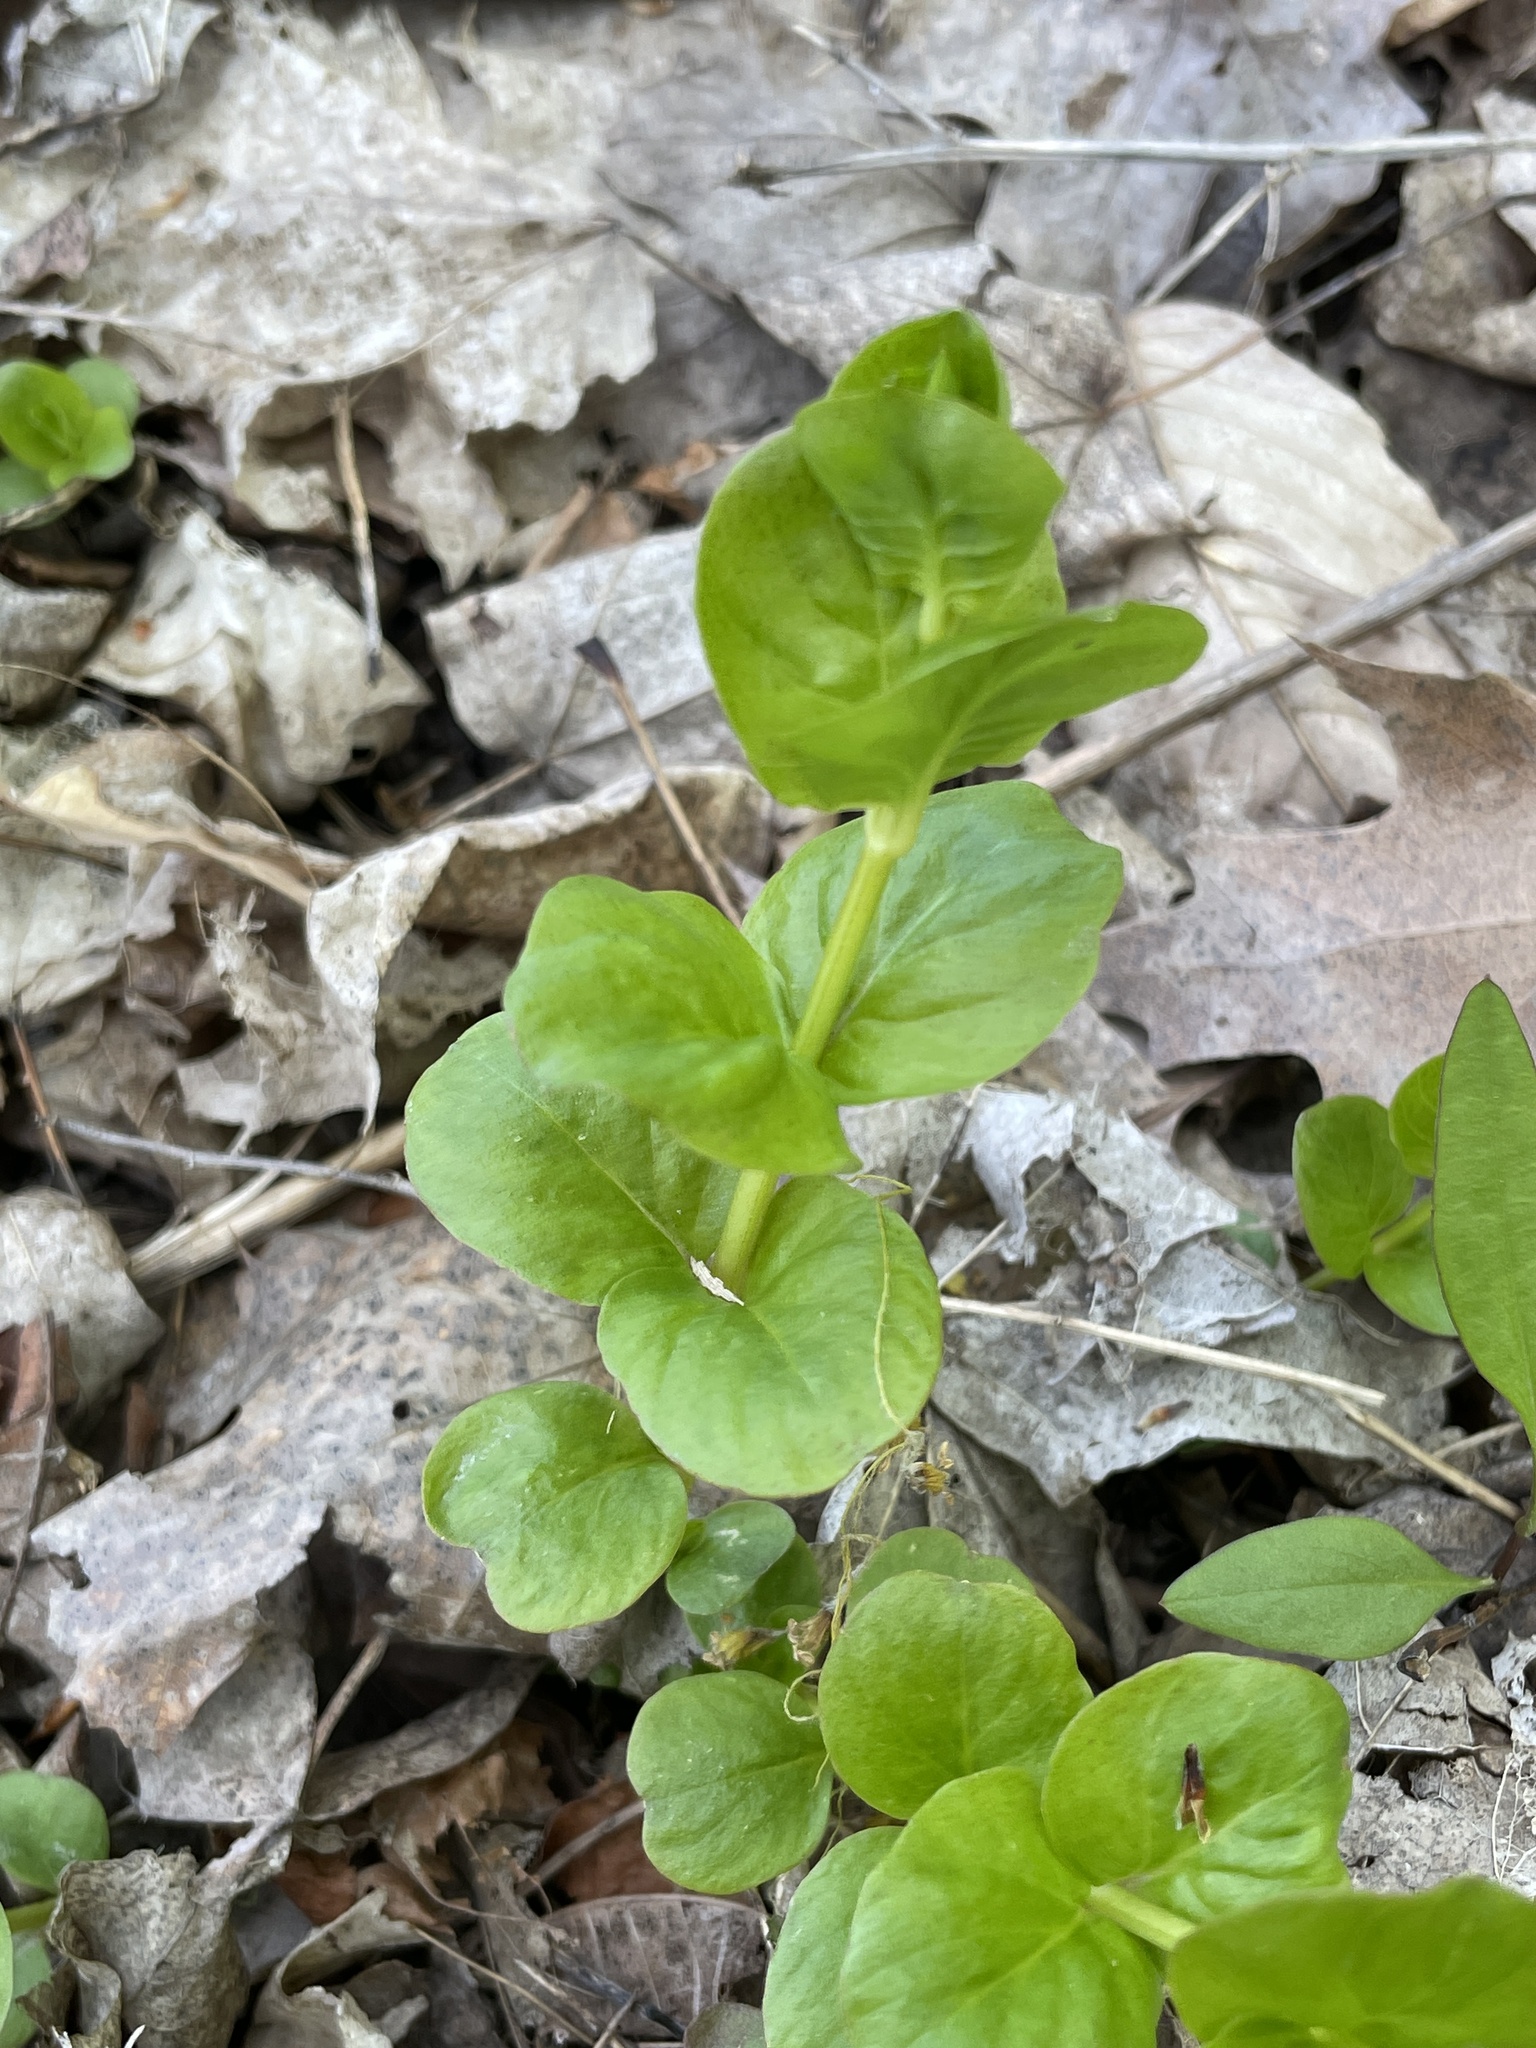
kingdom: Plantae
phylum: Tracheophyta
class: Magnoliopsida
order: Ericales
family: Primulaceae
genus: Lysimachia
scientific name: Lysimachia nummularia
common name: Moneywort
